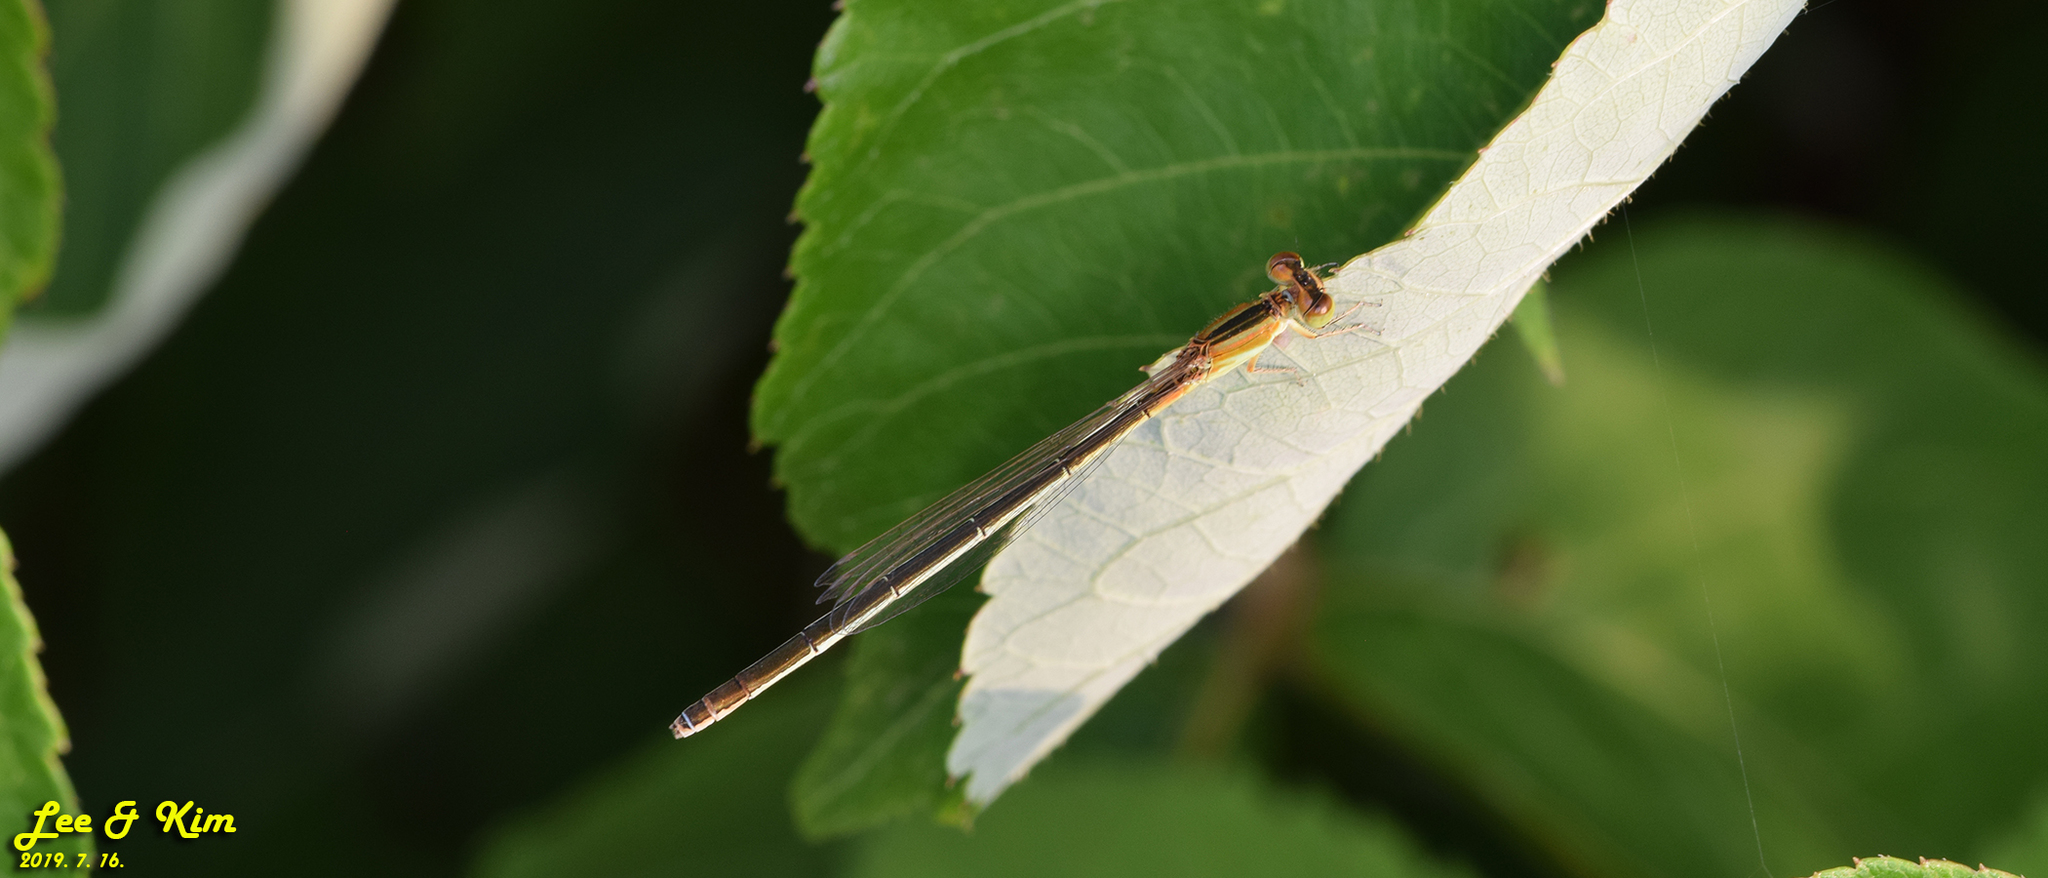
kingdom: Animalia
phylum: Arthropoda
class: Insecta
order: Odonata
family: Coenagrionidae
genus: Ischnura
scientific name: Ischnura asiatica
